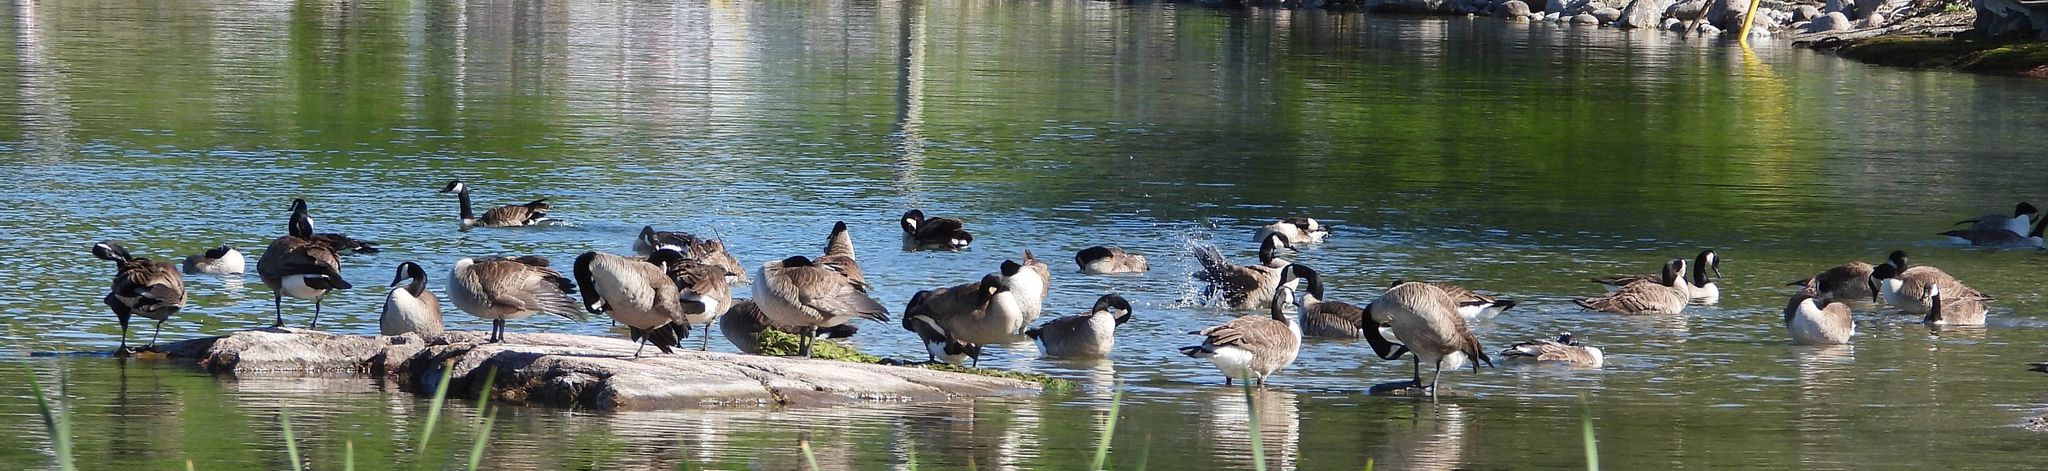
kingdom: Animalia
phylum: Chordata
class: Aves
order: Anseriformes
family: Anatidae
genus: Branta
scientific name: Branta canadensis
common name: Canada goose
